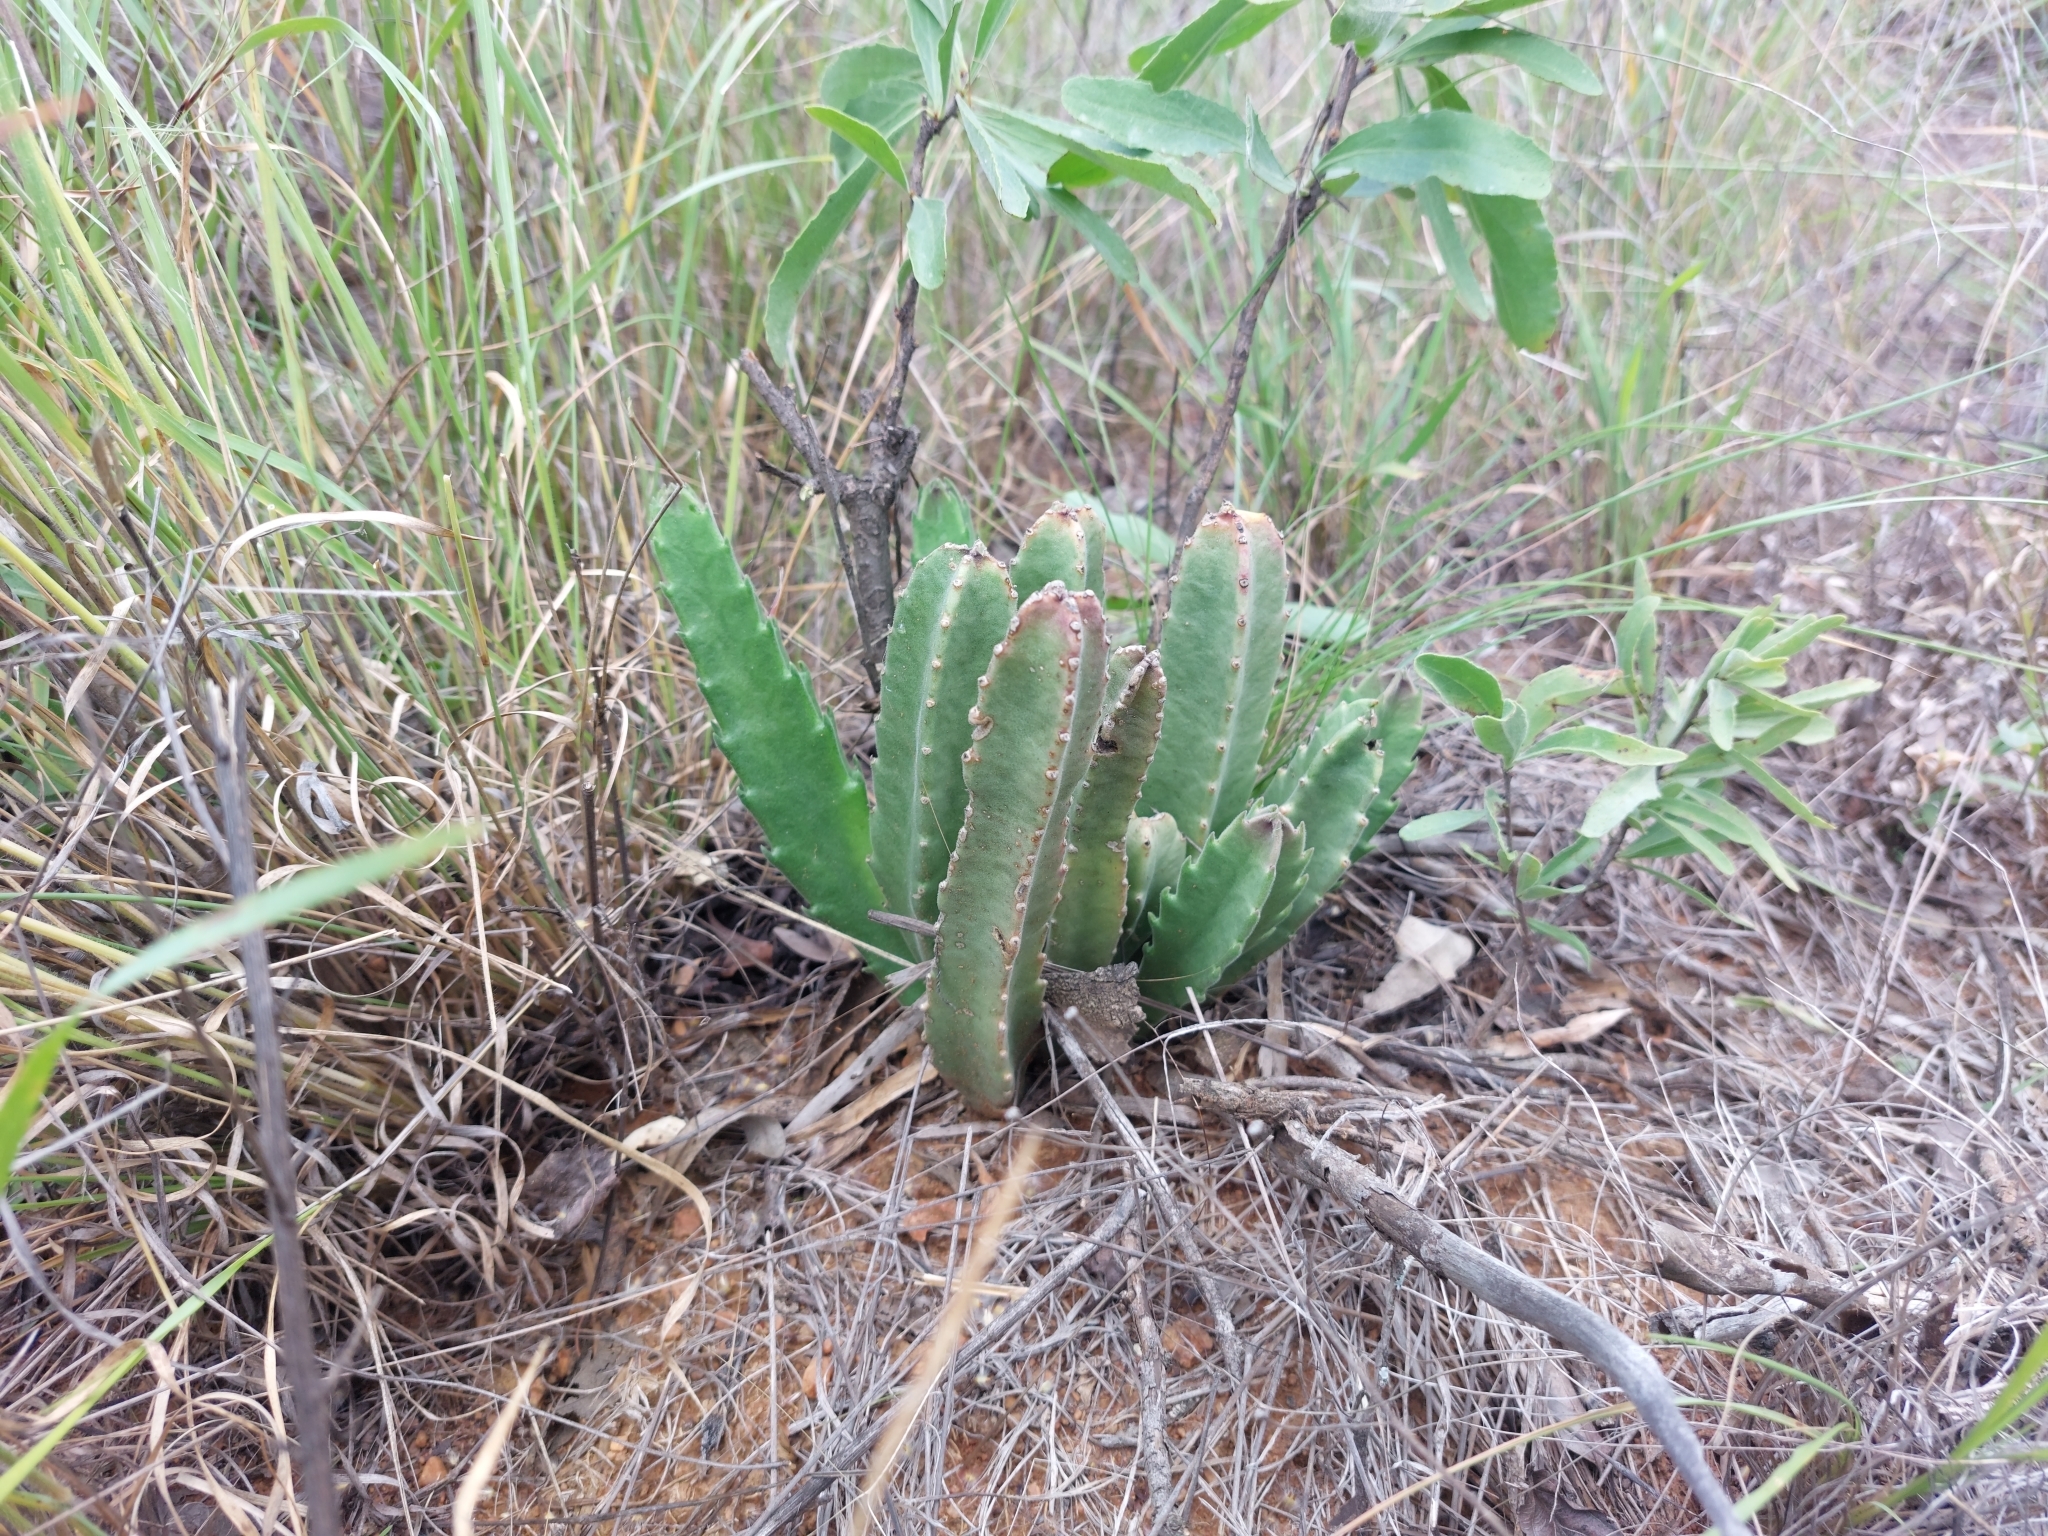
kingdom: Plantae
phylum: Tracheophyta
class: Magnoliopsida
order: Gentianales
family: Apocynaceae
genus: Ceropegia
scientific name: Ceropegia gigantea
